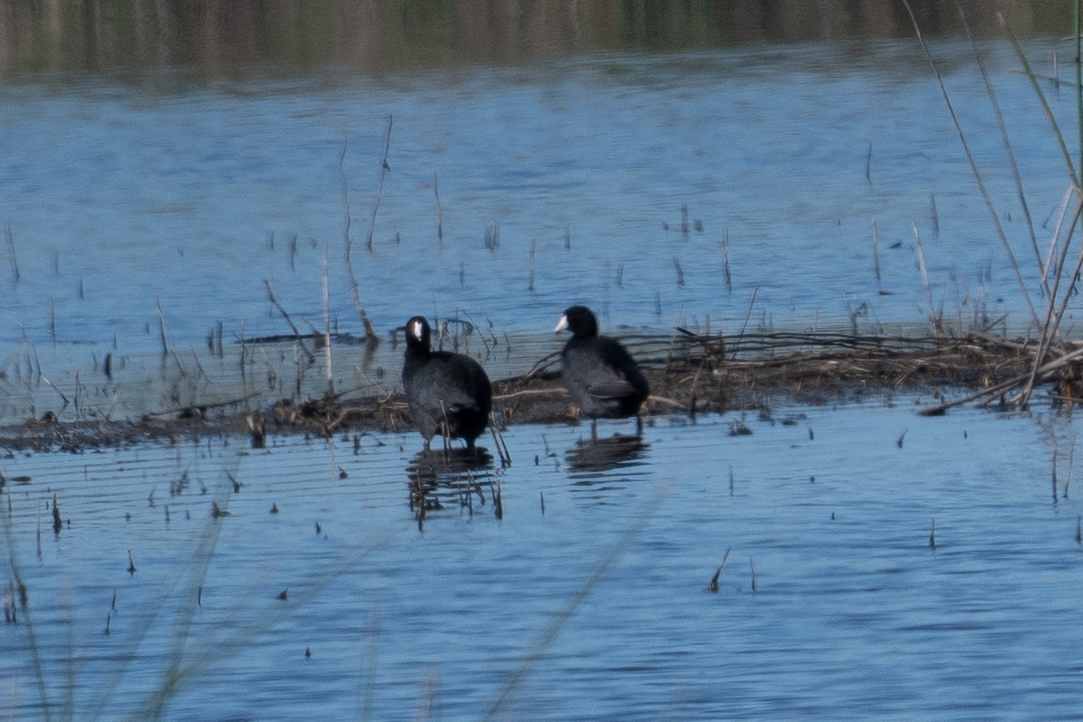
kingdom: Animalia
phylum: Chordata
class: Aves
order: Gruiformes
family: Rallidae
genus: Fulica
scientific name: Fulica americana
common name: American coot
